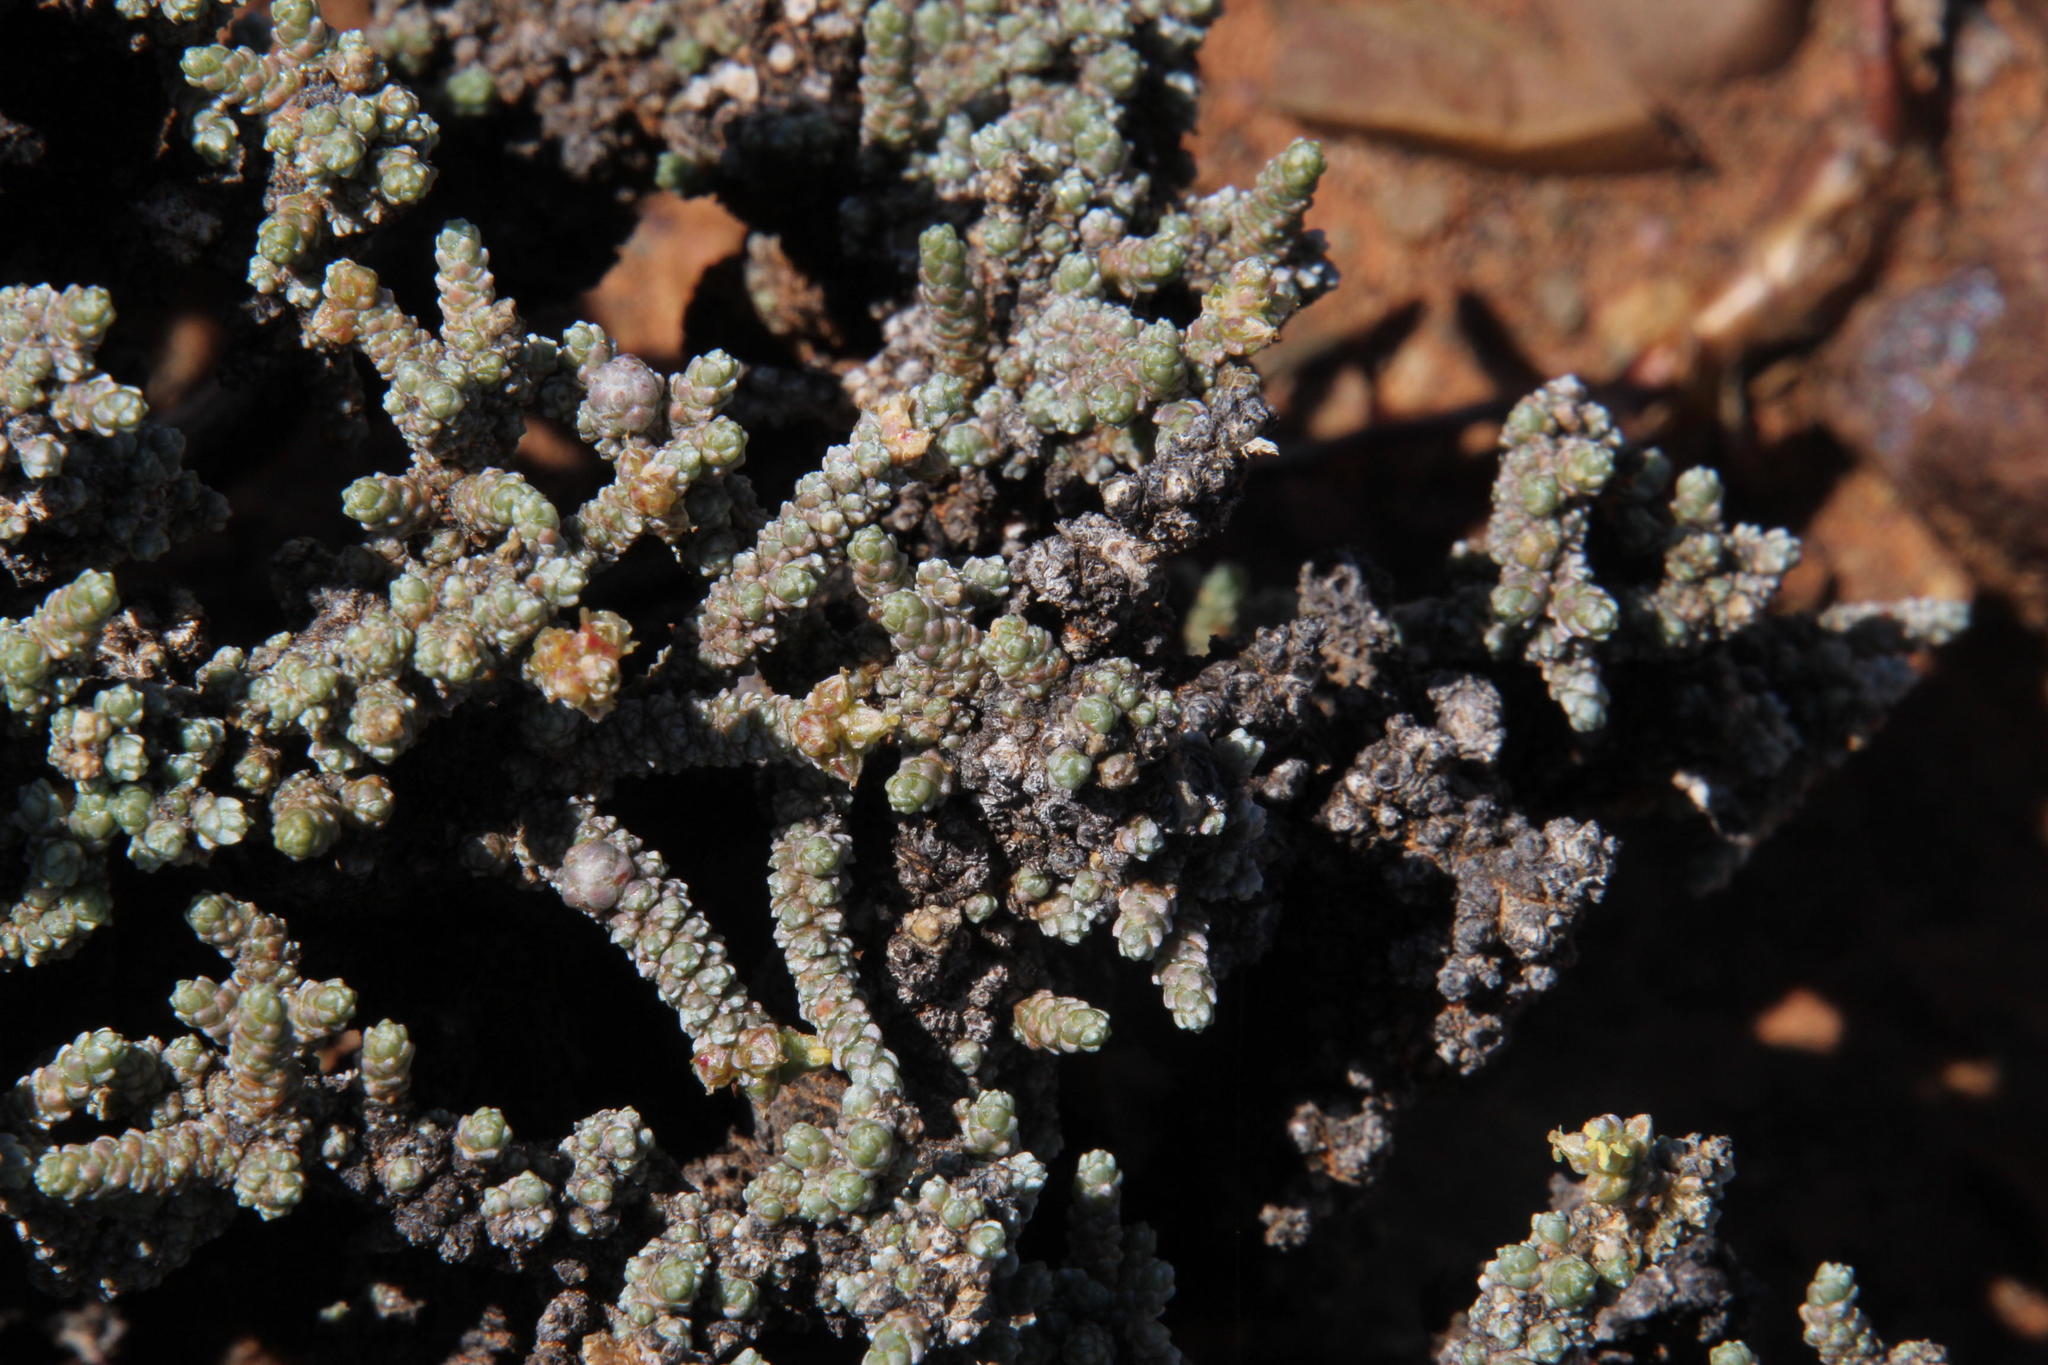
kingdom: Plantae
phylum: Tracheophyta
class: Magnoliopsida
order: Caryophyllales
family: Amaranthaceae
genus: Caroxylon
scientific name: Caroxylon tuberculatum
